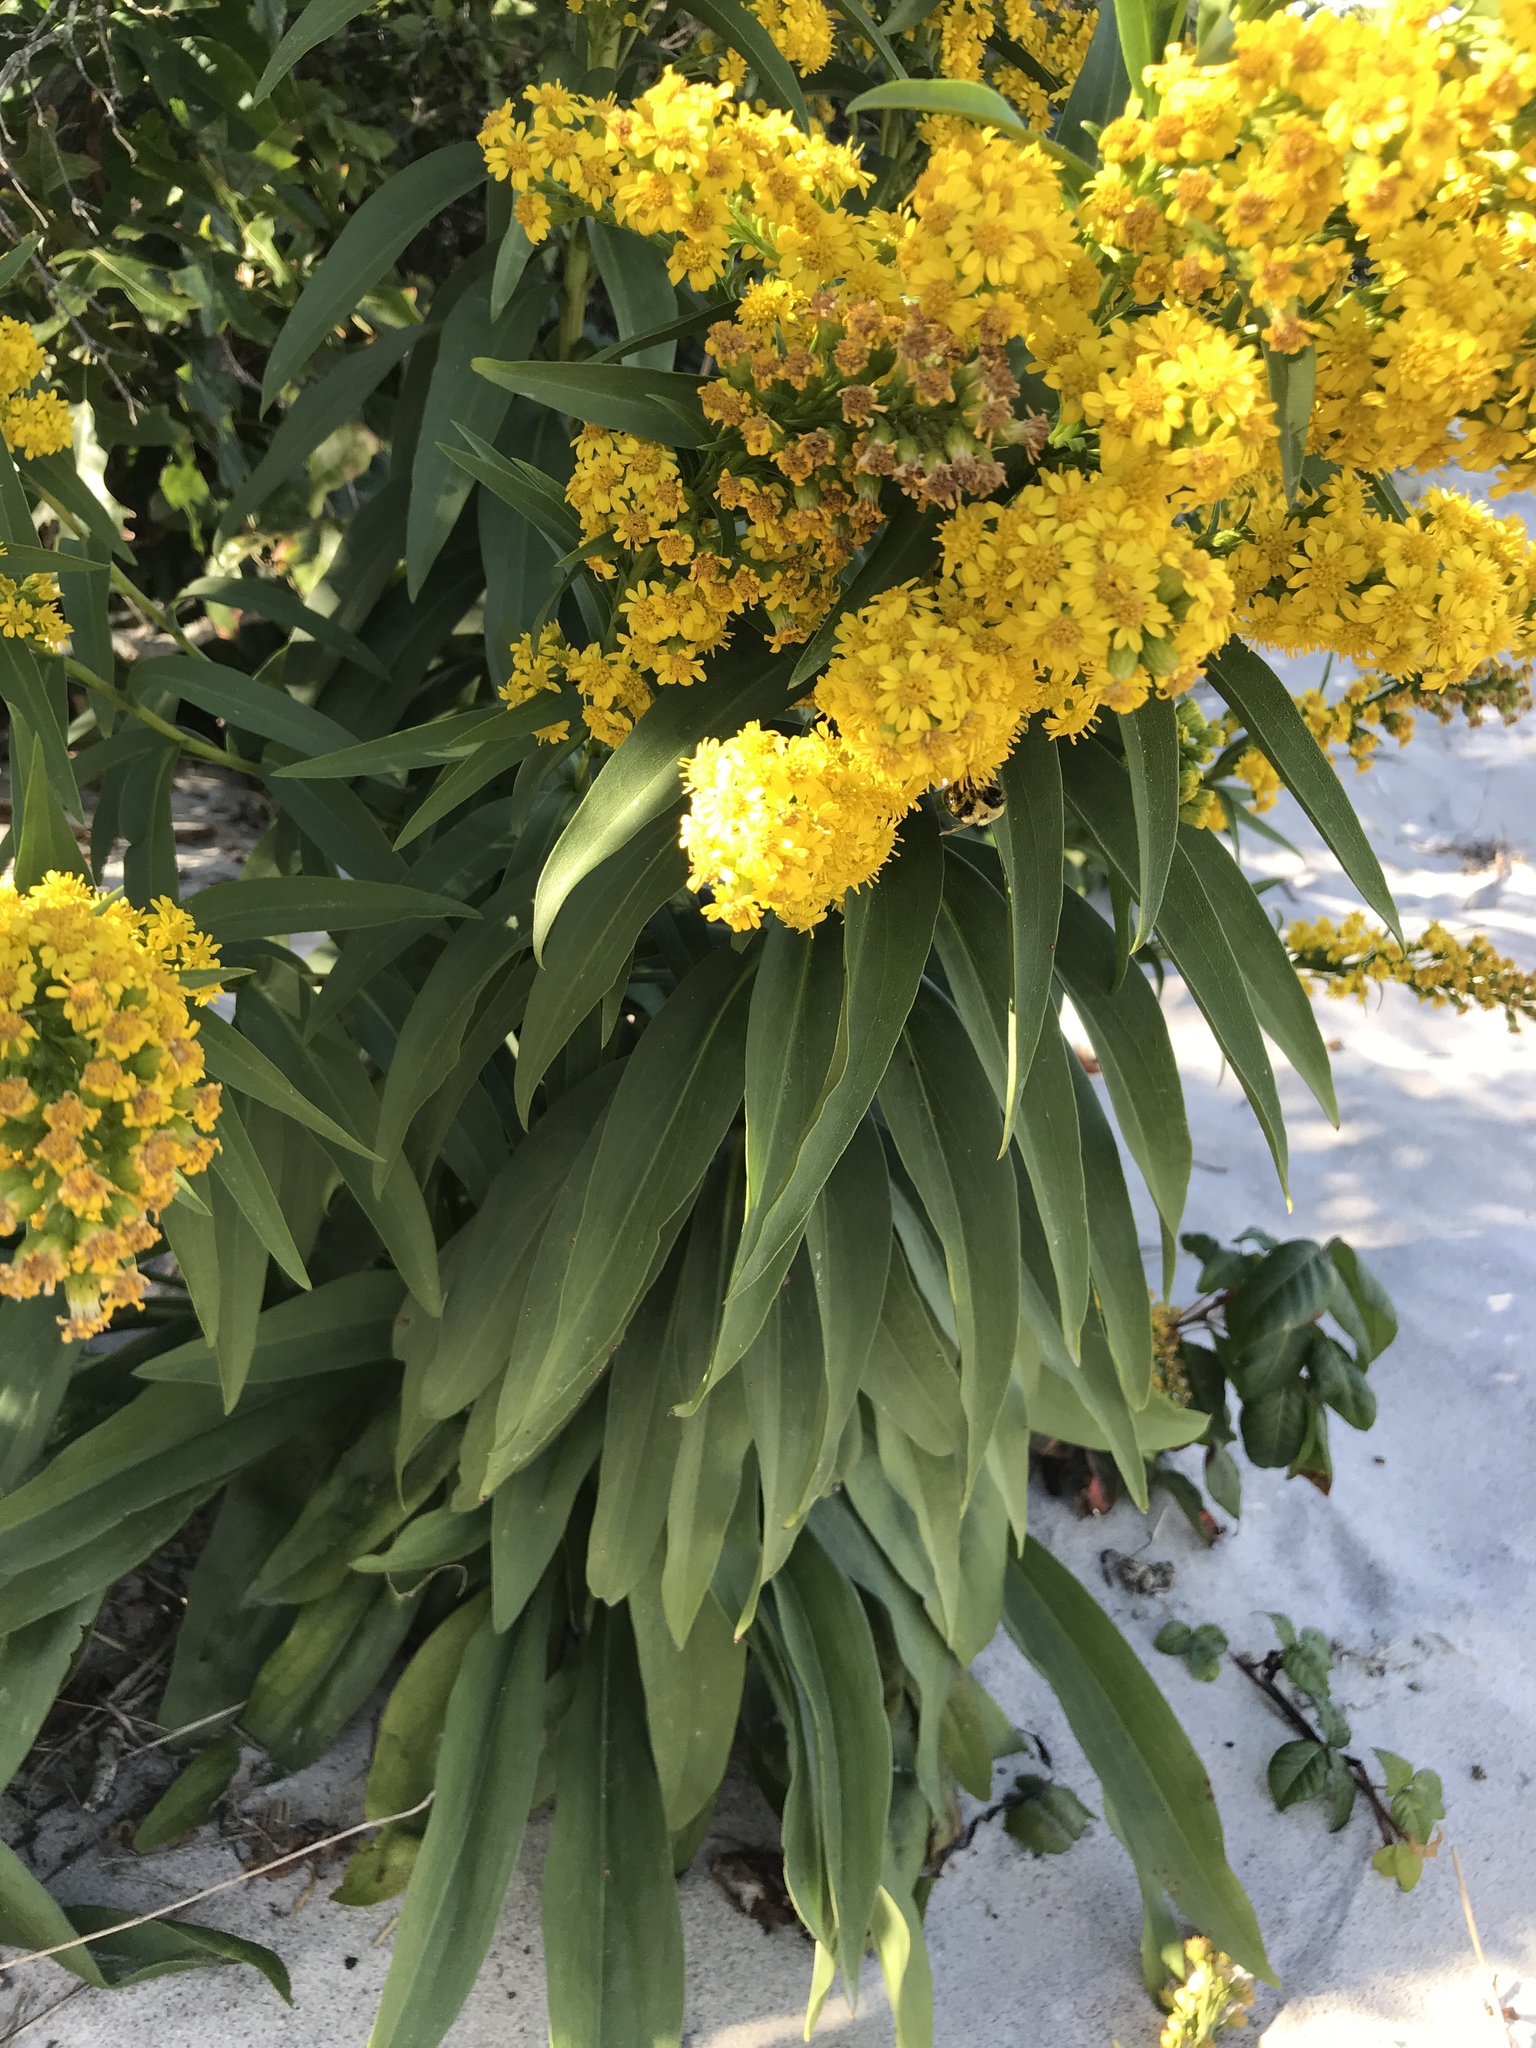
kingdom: Plantae
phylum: Tracheophyta
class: Magnoliopsida
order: Asterales
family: Asteraceae
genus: Solidago
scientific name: Solidago sempervirens
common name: Salt-marsh goldenrod
